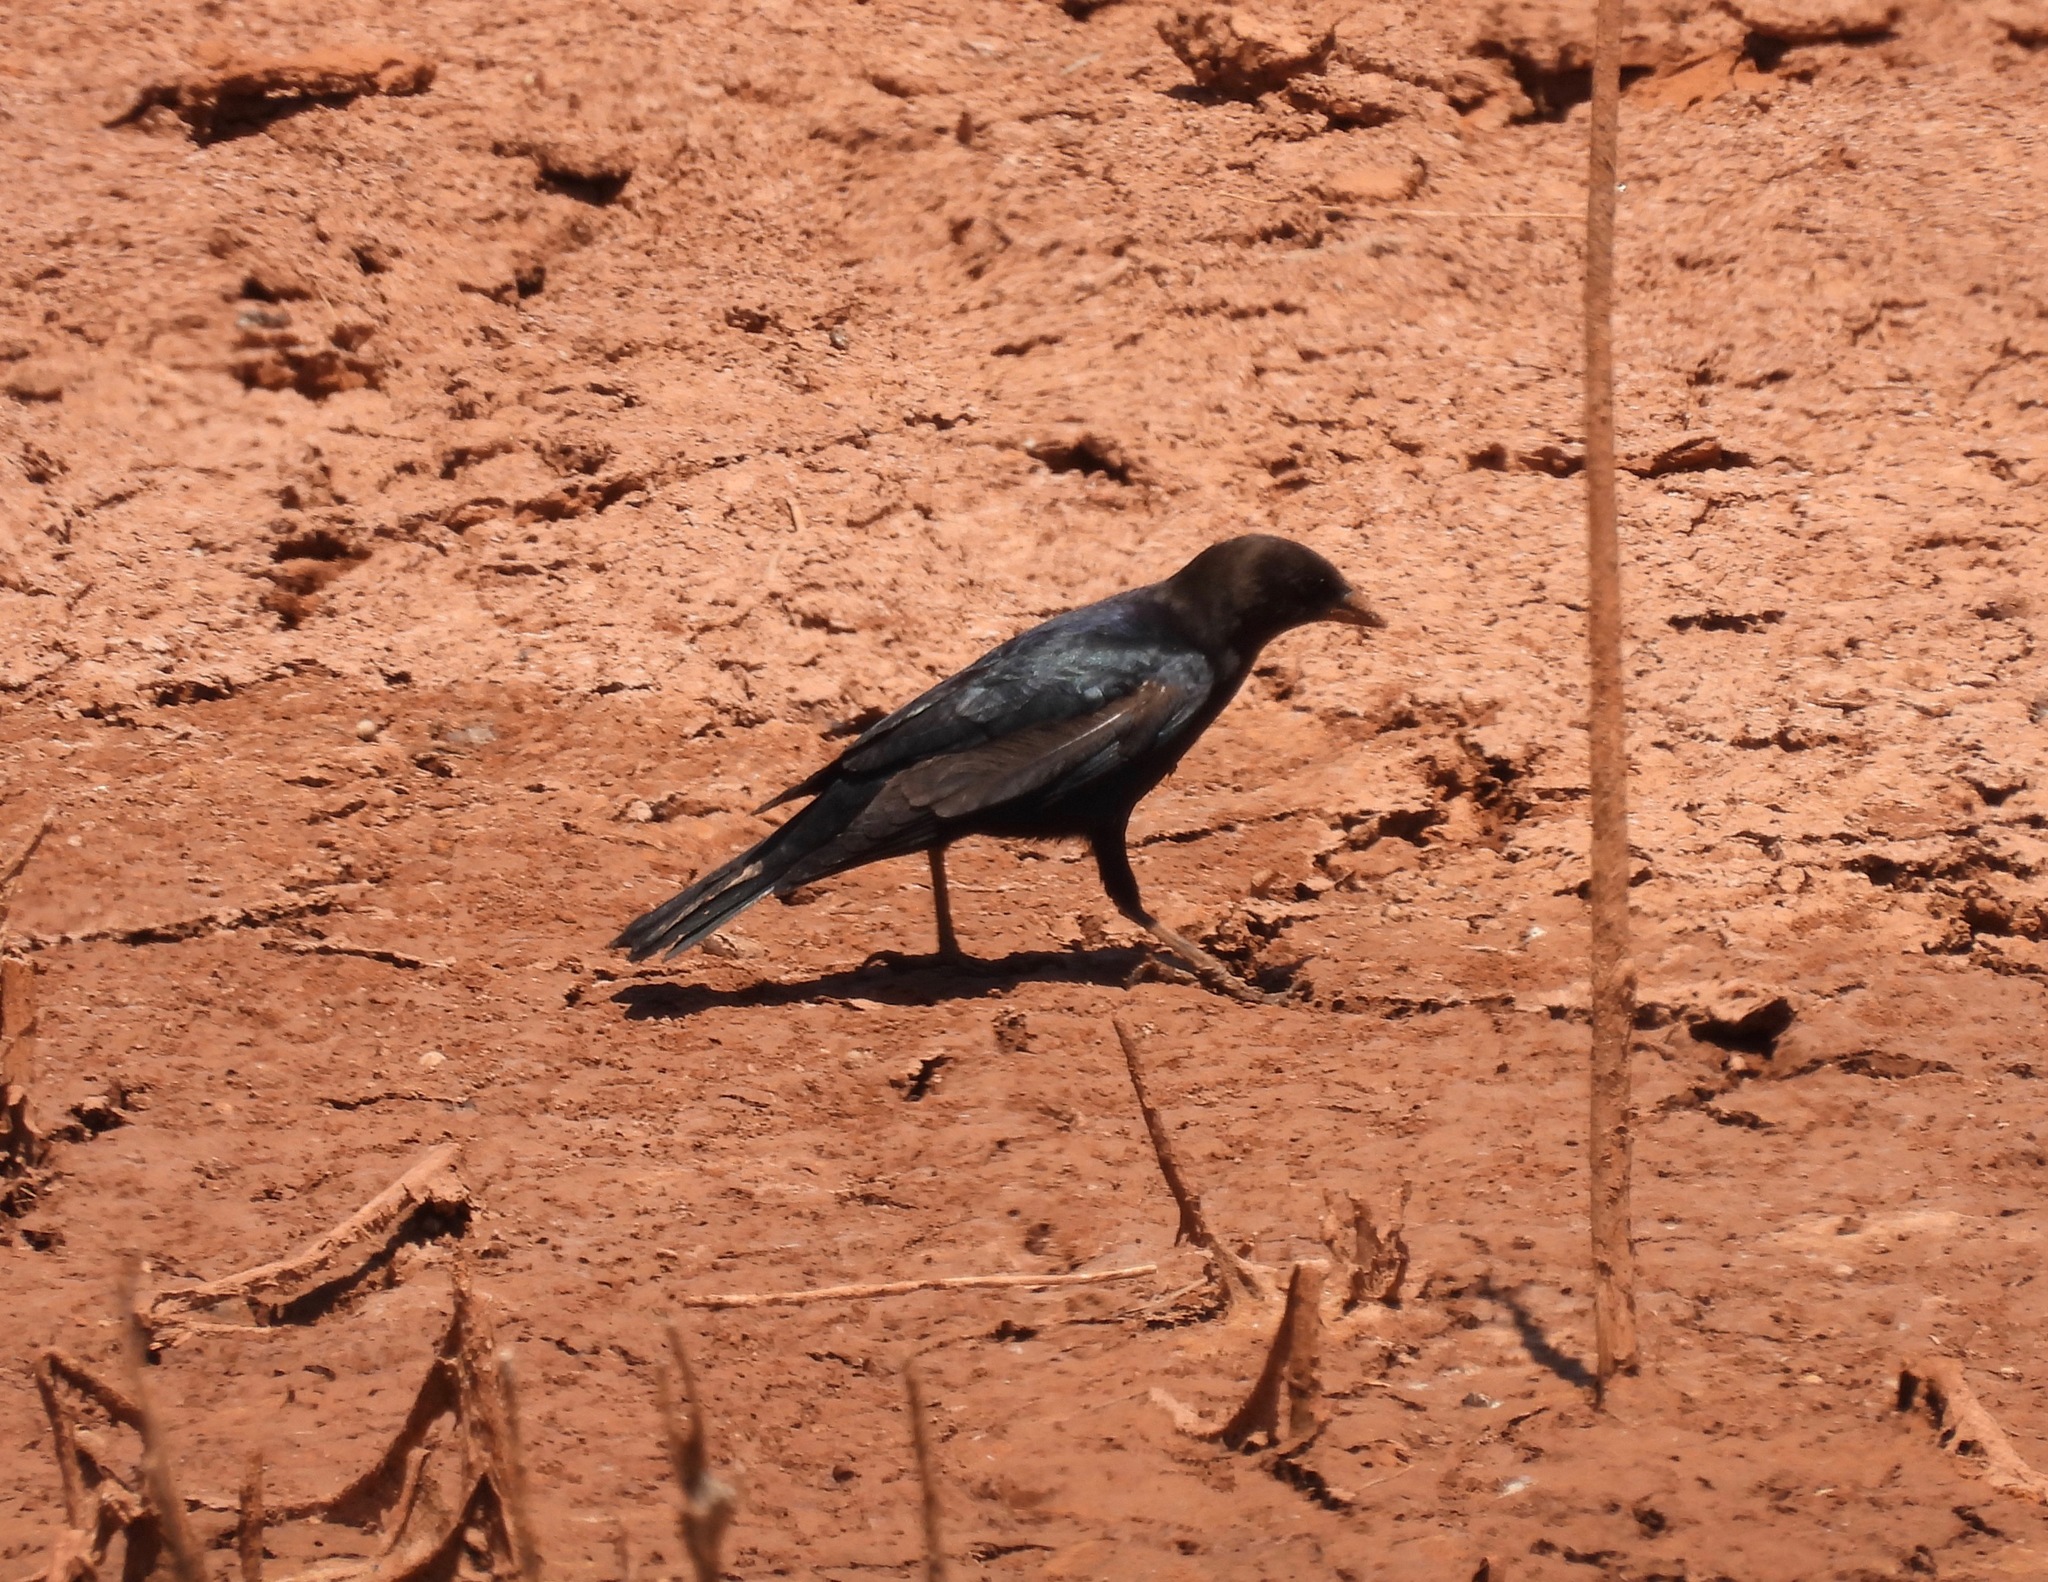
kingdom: Animalia
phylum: Chordata
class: Aves
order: Passeriformes
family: Icteridae
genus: Molothrus
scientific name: Molothrus ater
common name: Brown-headed cowbird
